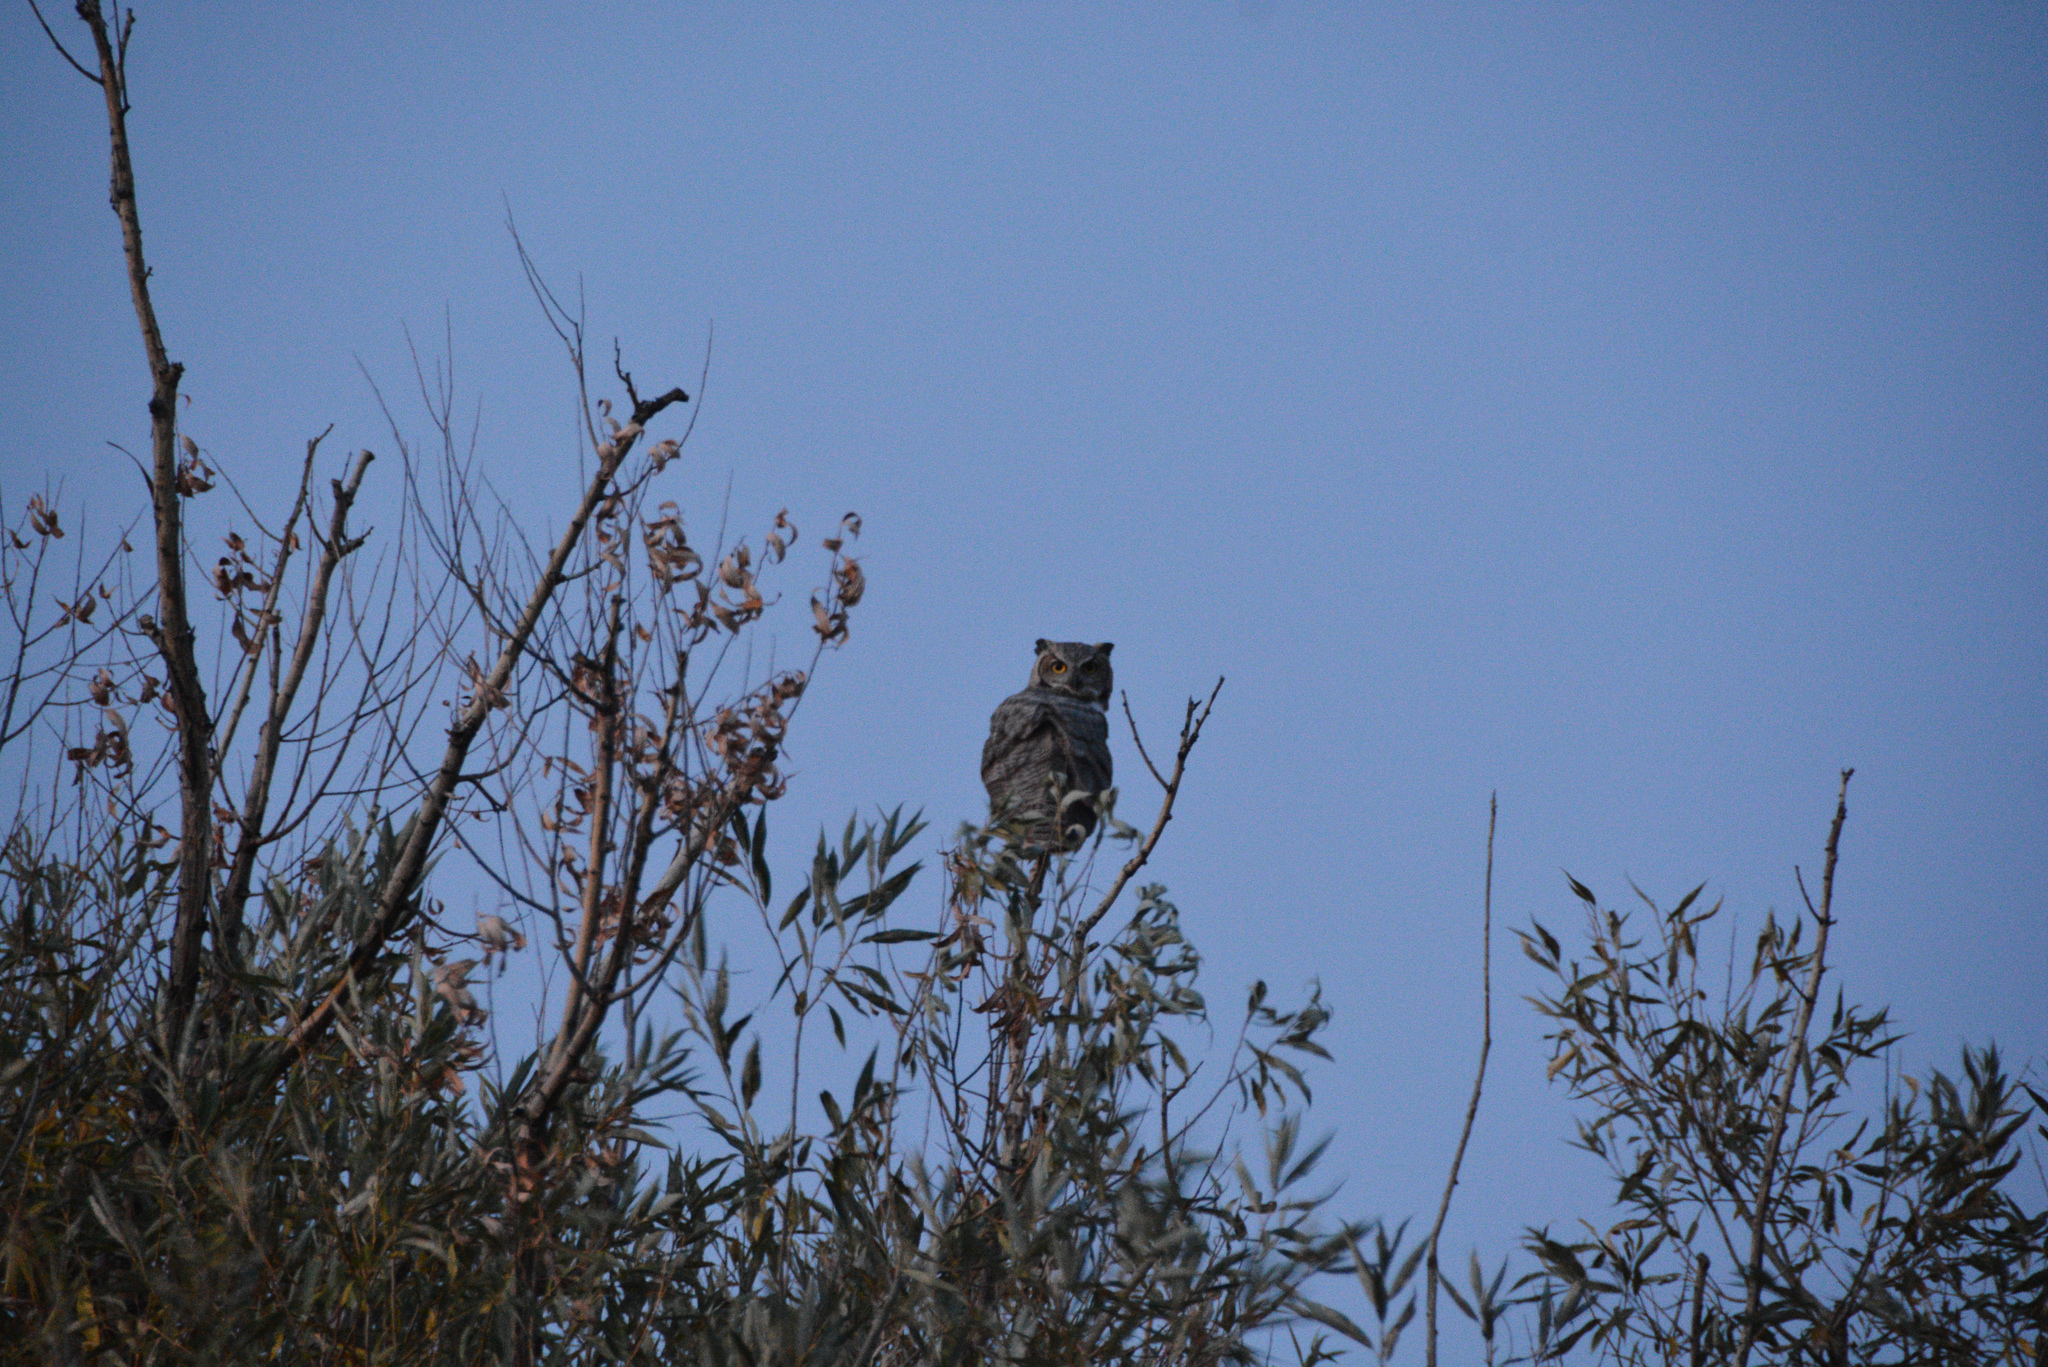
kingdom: Animalia
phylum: Chordata
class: Aves
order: Strigiformes
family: Strigidae
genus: Bubo
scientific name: Bubo virginianus
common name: Great horned owl
